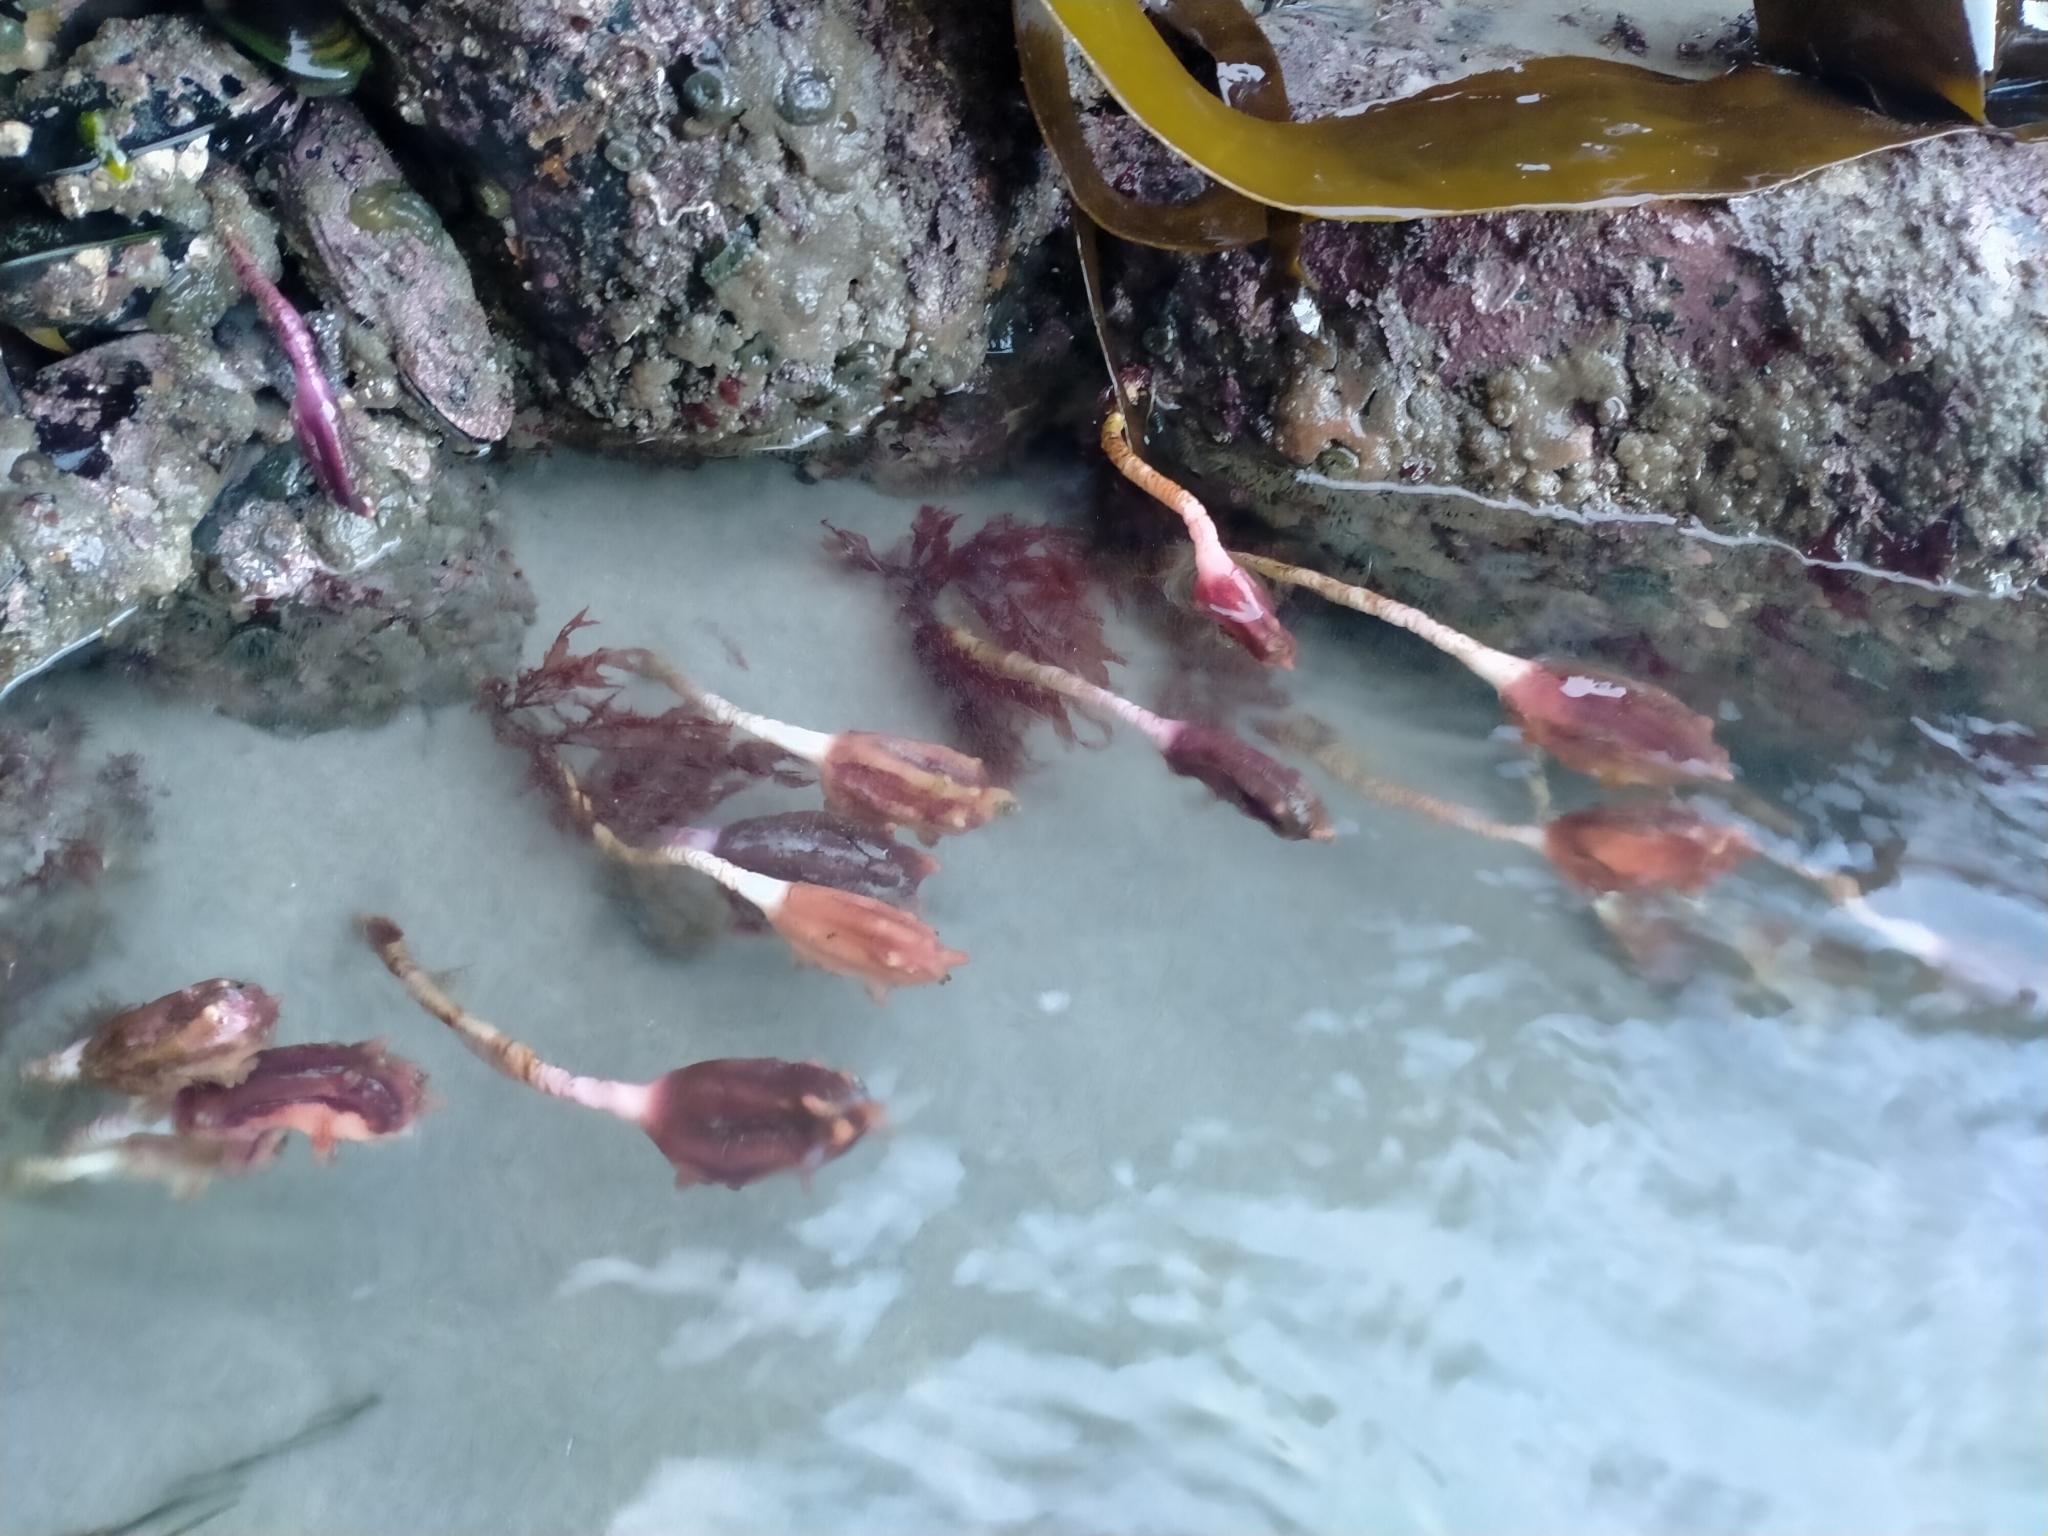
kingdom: Animalia
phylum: Chordata
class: Ascidiacea
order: Stolidobranchia
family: Pyuridae
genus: Pyura
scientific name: Pyura pachydermatina
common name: Sea tulip
